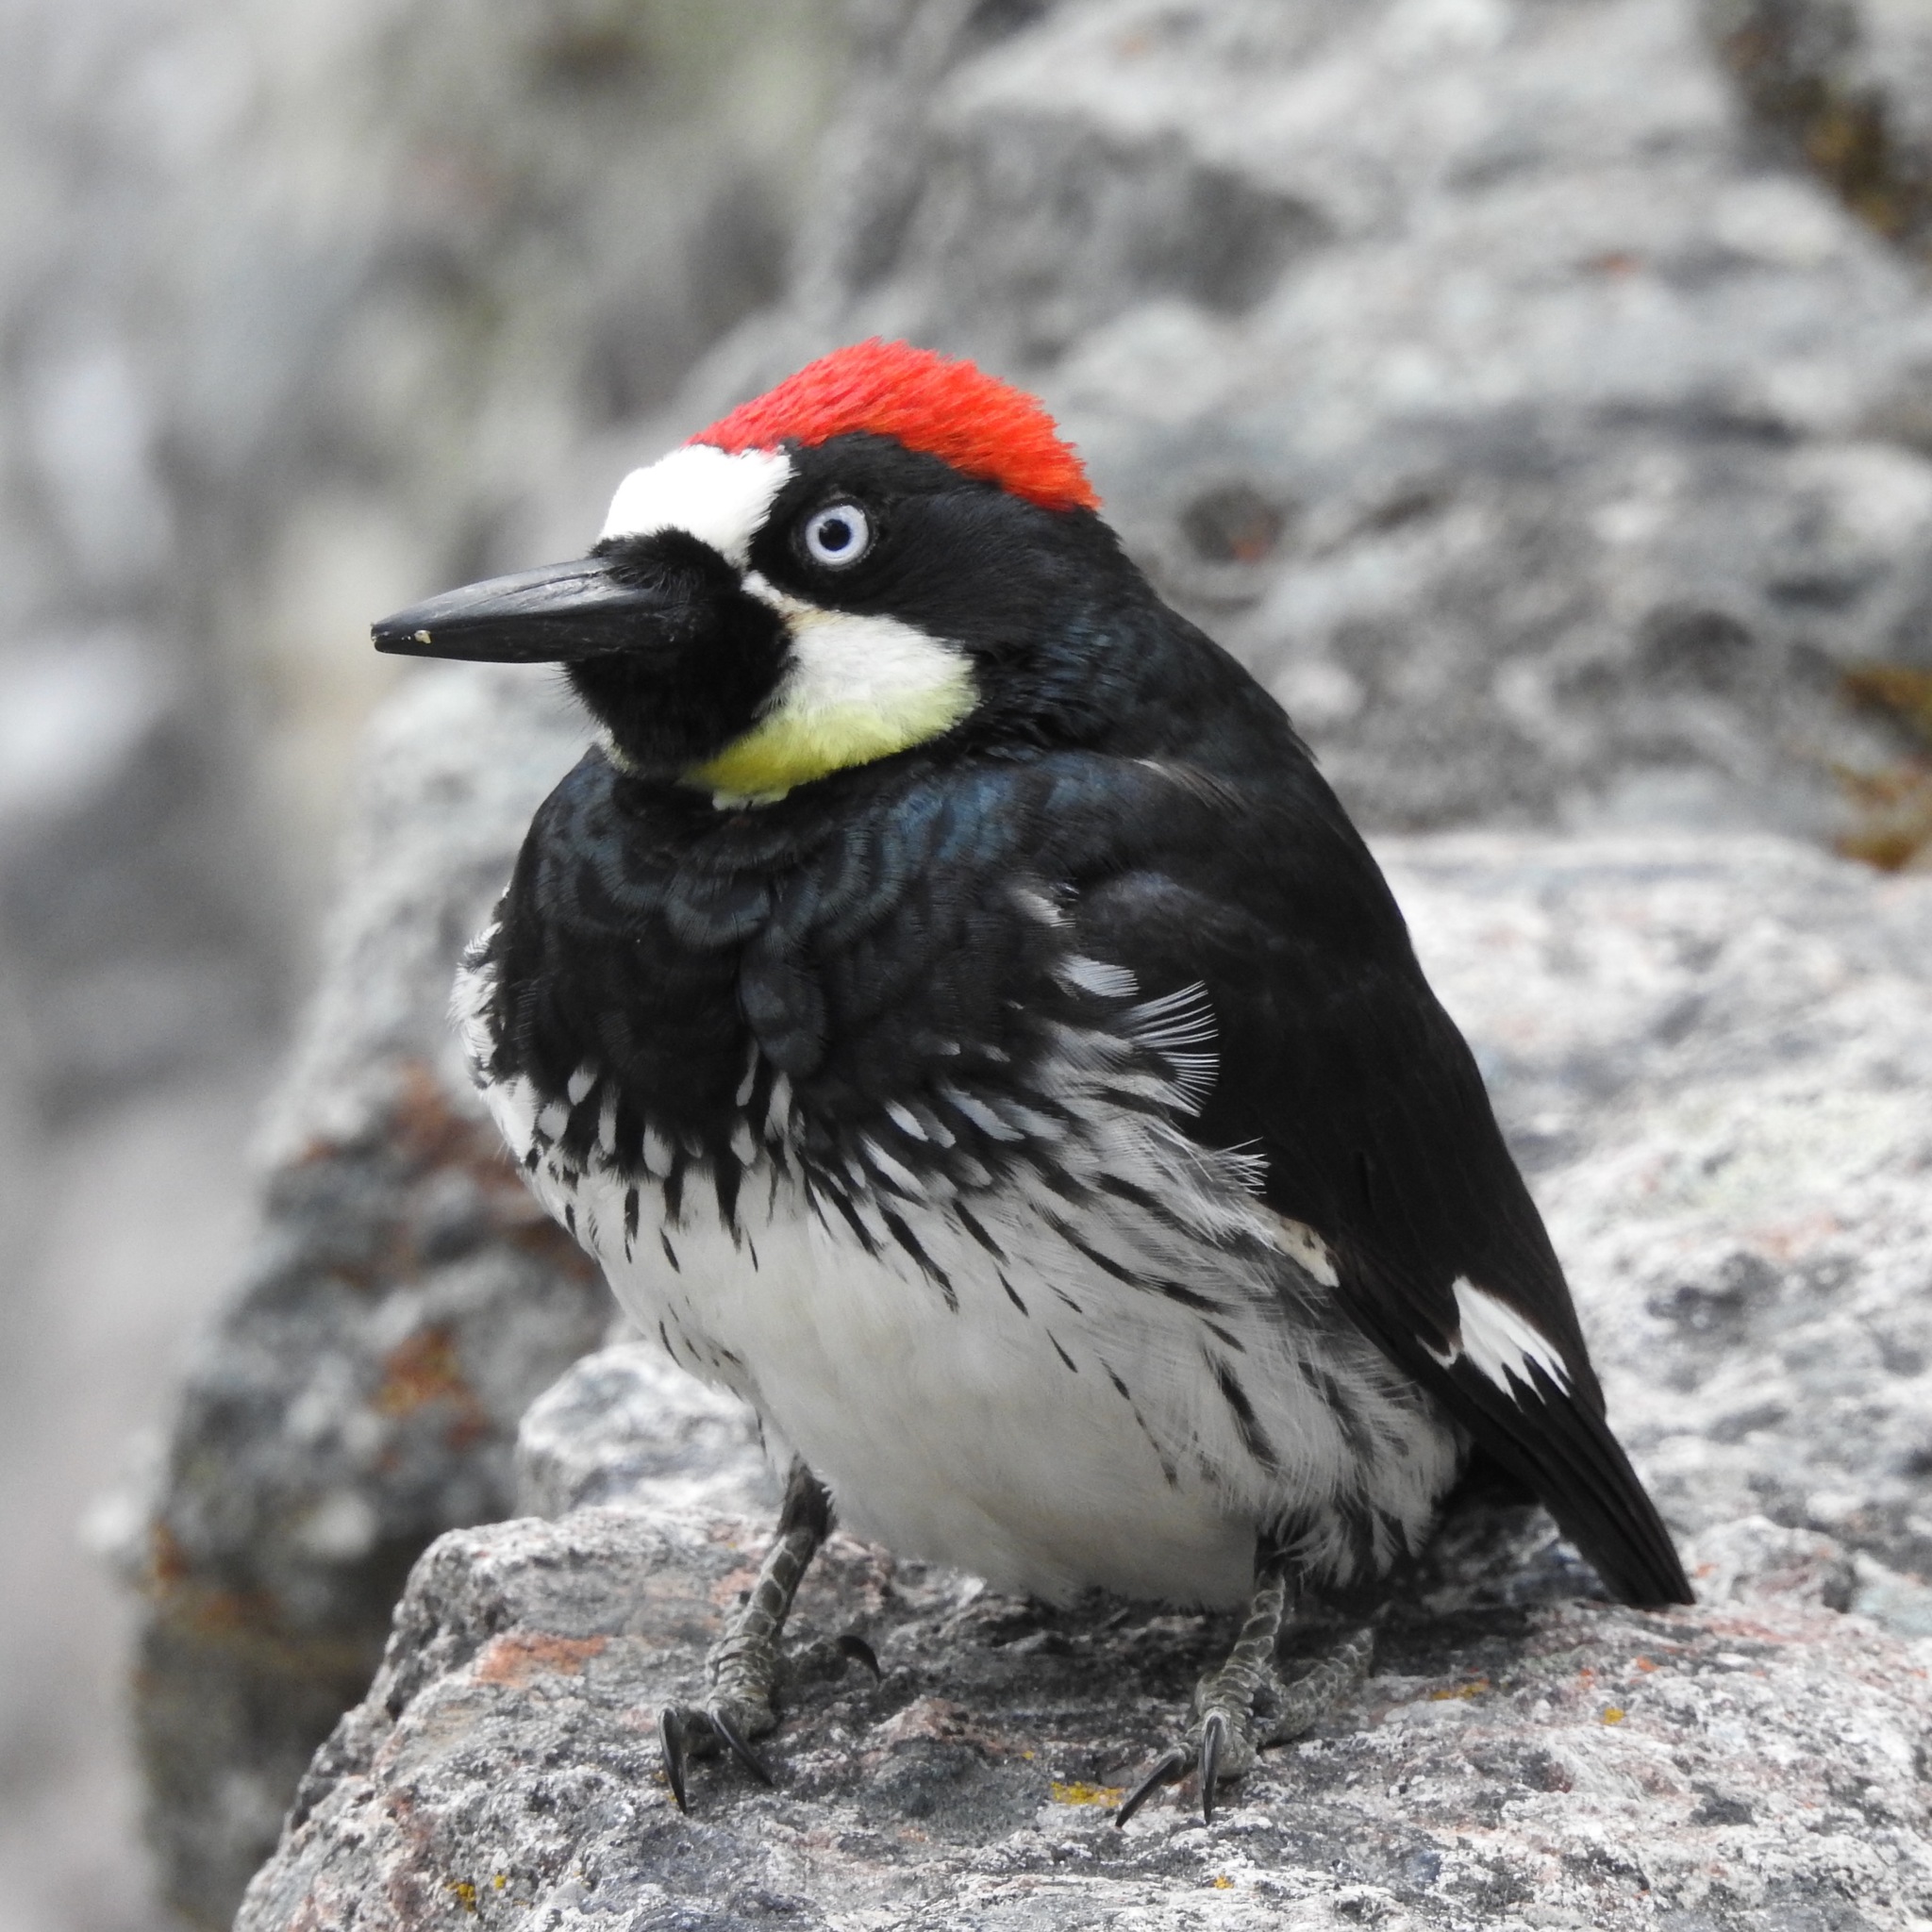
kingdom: Animalia
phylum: Chordata
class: Aves
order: Piciformes
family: Picidae
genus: Melanerpes
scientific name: Melanerpes formicivorus
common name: Acorn woodpecker
